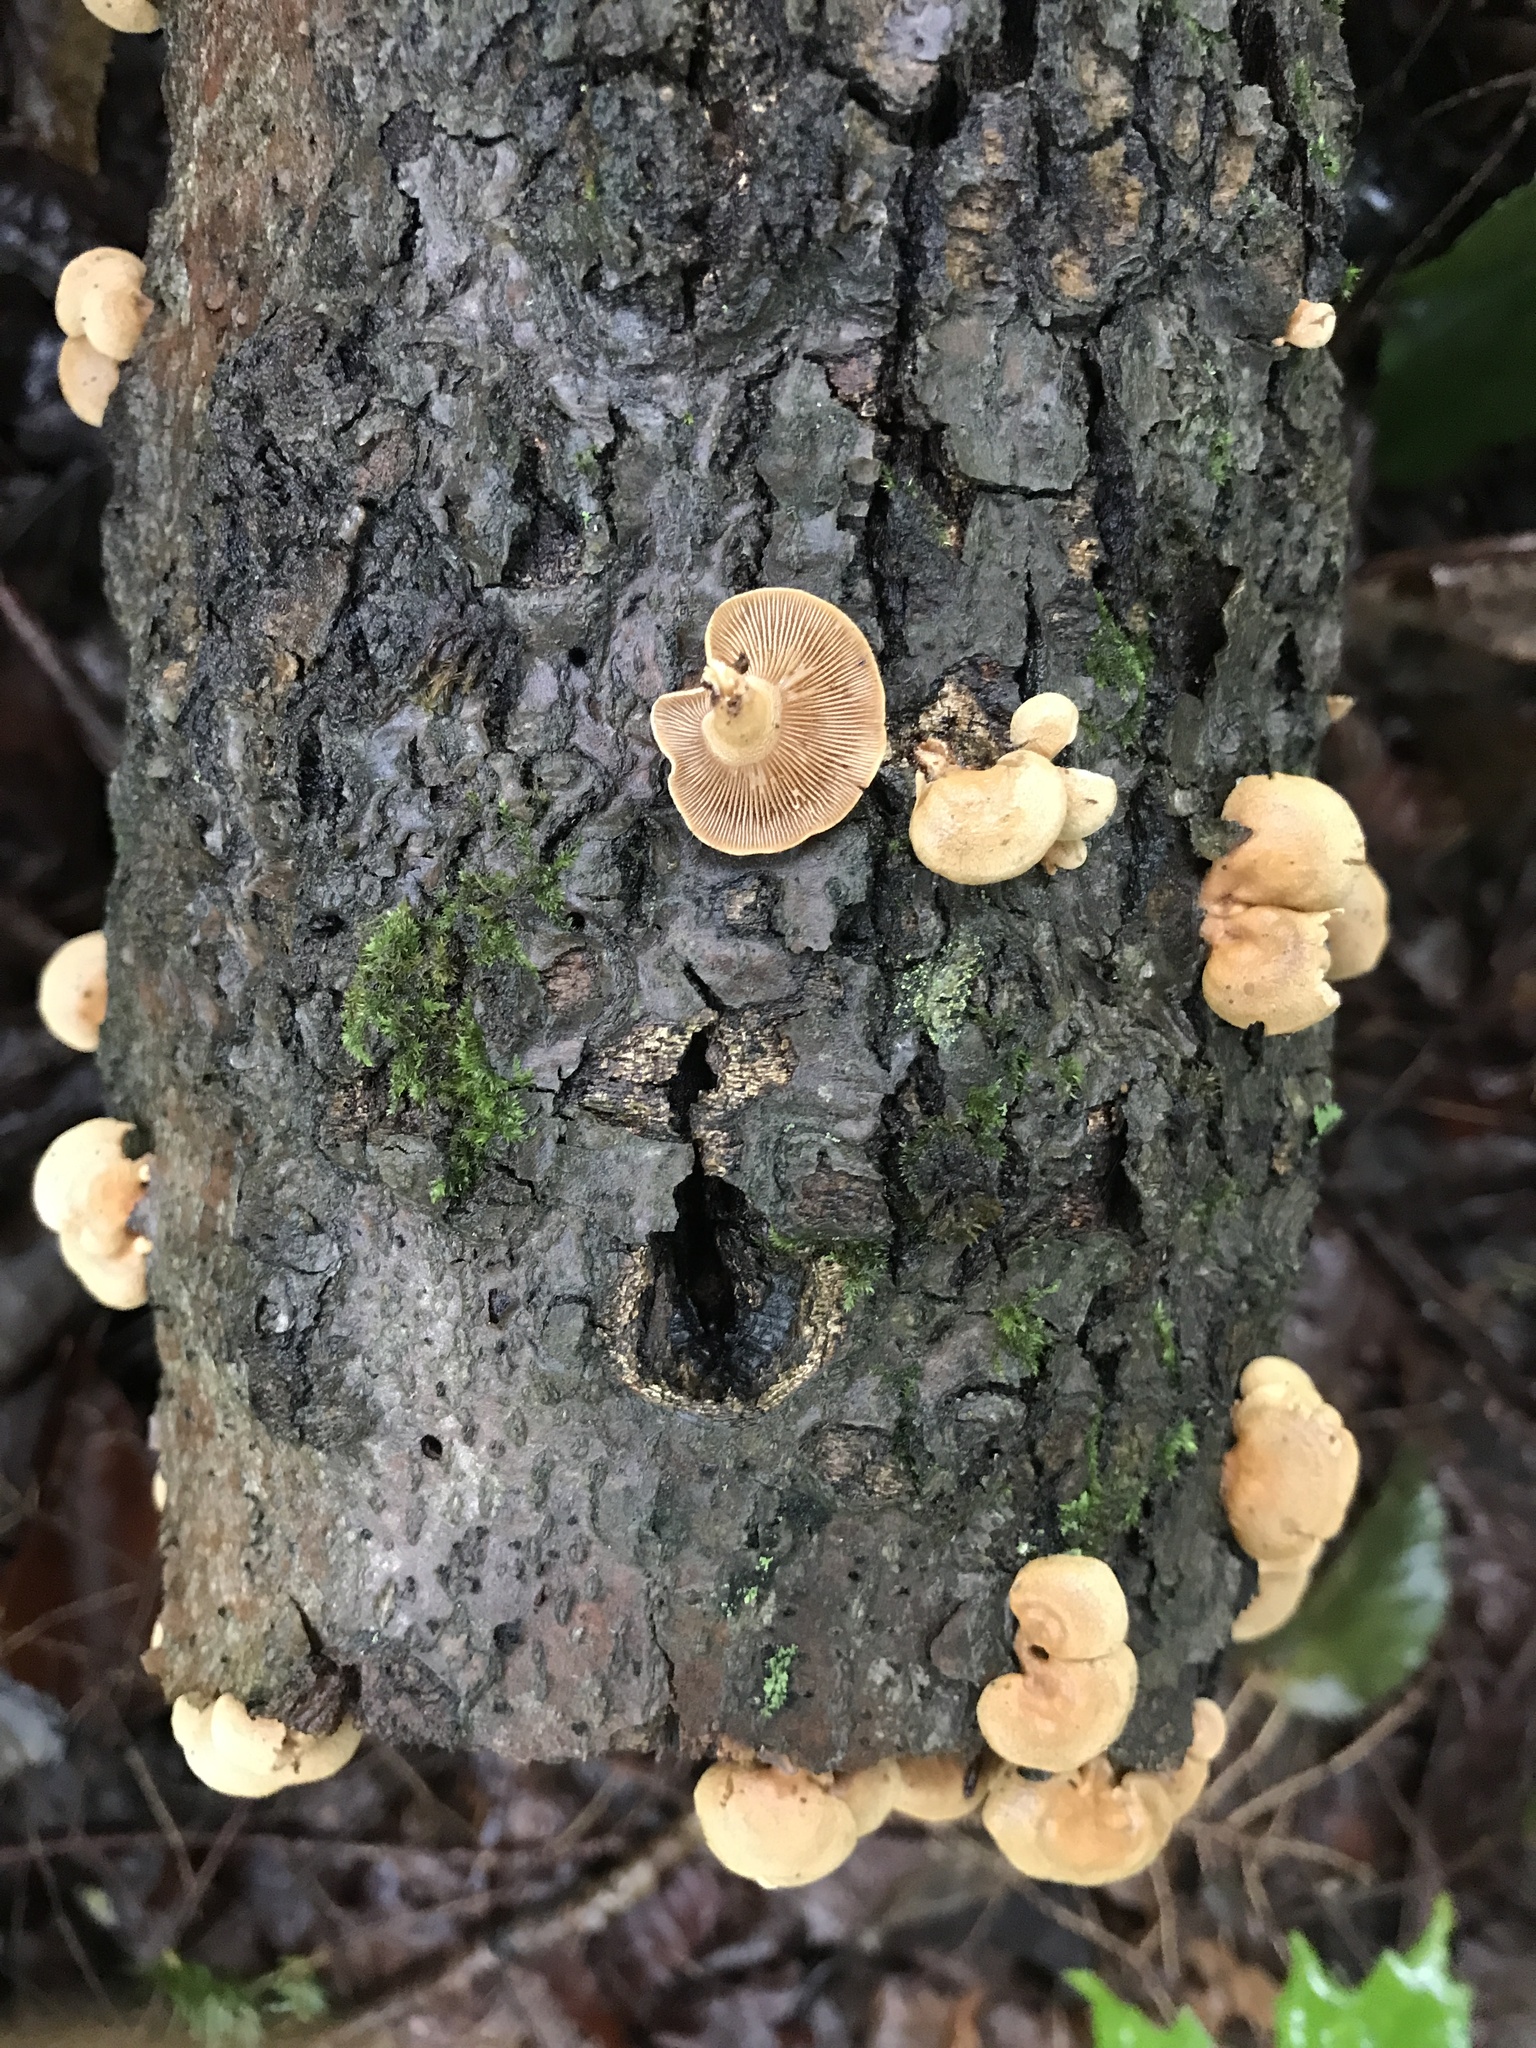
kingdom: Fungi
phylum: Basidiomycota
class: Agaricomycetes
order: Agaricales
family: Mycenaceae
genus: Panellus
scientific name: Panellus stipticus
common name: Bitter oysterling
